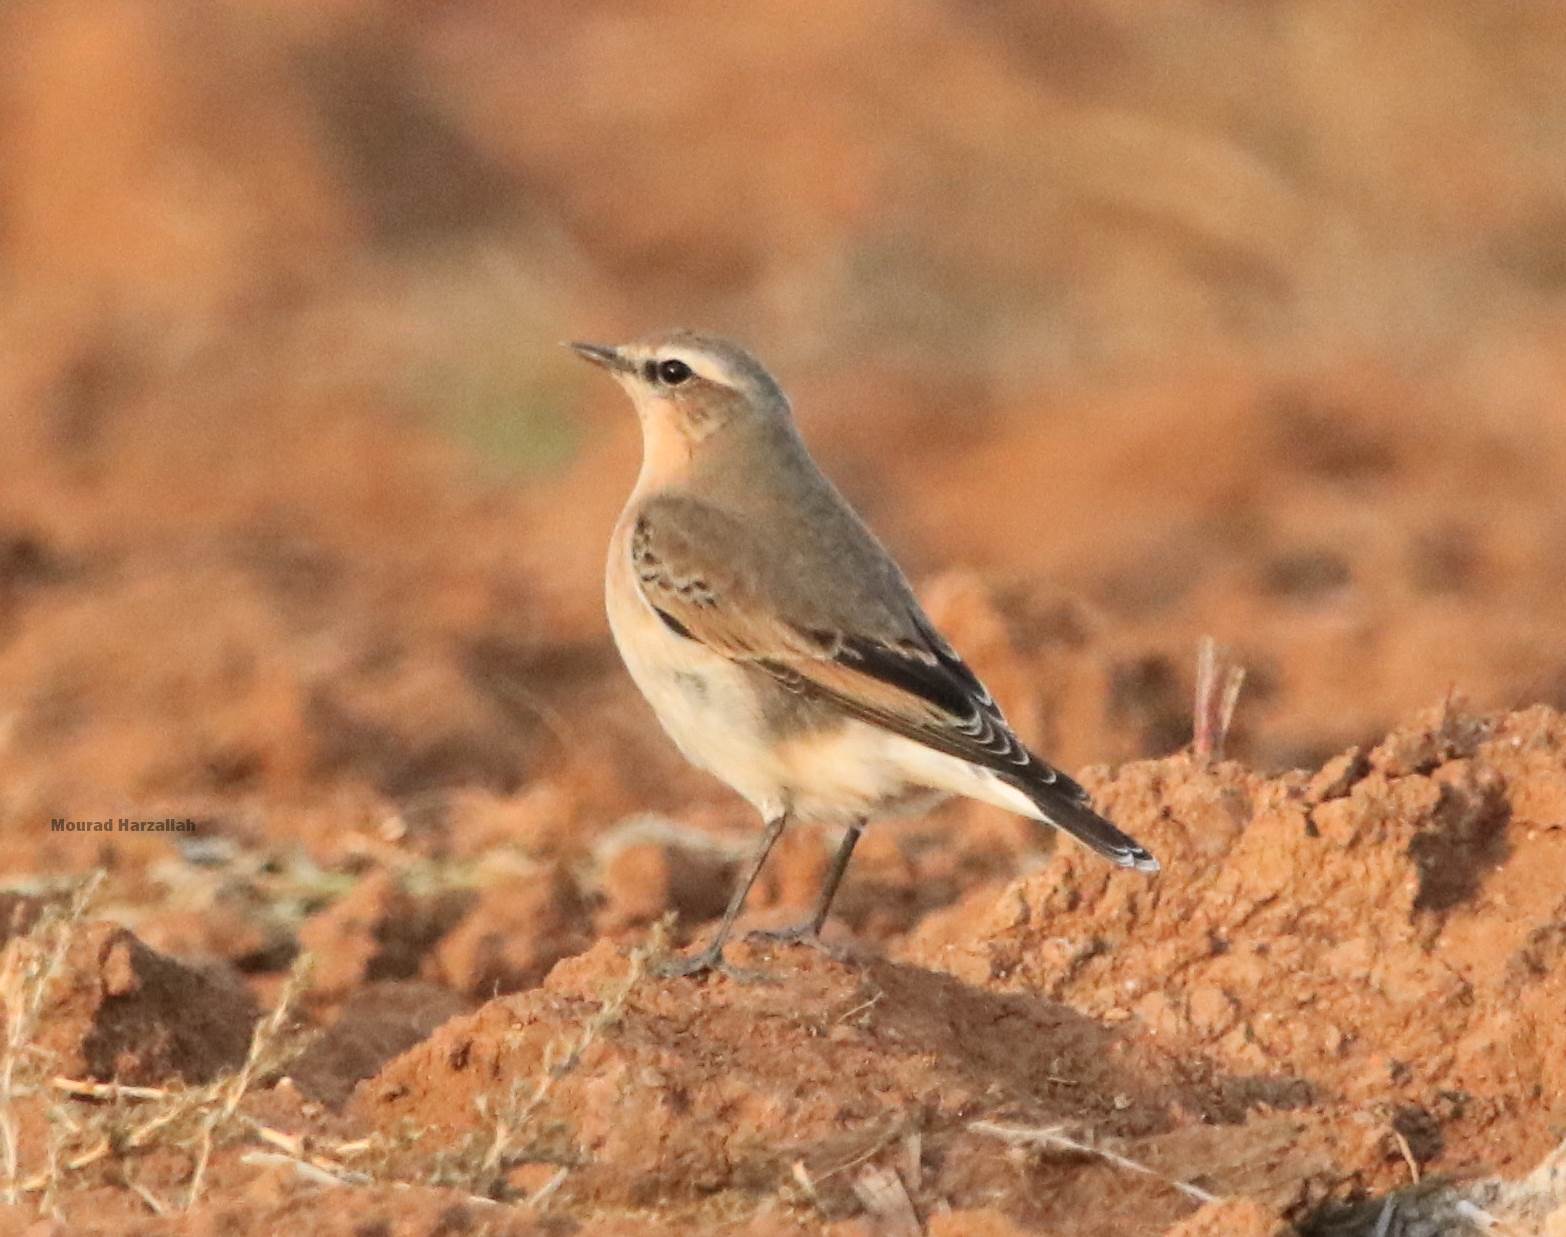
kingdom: Animalia
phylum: Chordata
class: Aves
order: Passeriformes
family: Muscicapidae
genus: Oenanthe
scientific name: Oenanthe oenanthe
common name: Northern wheatear
